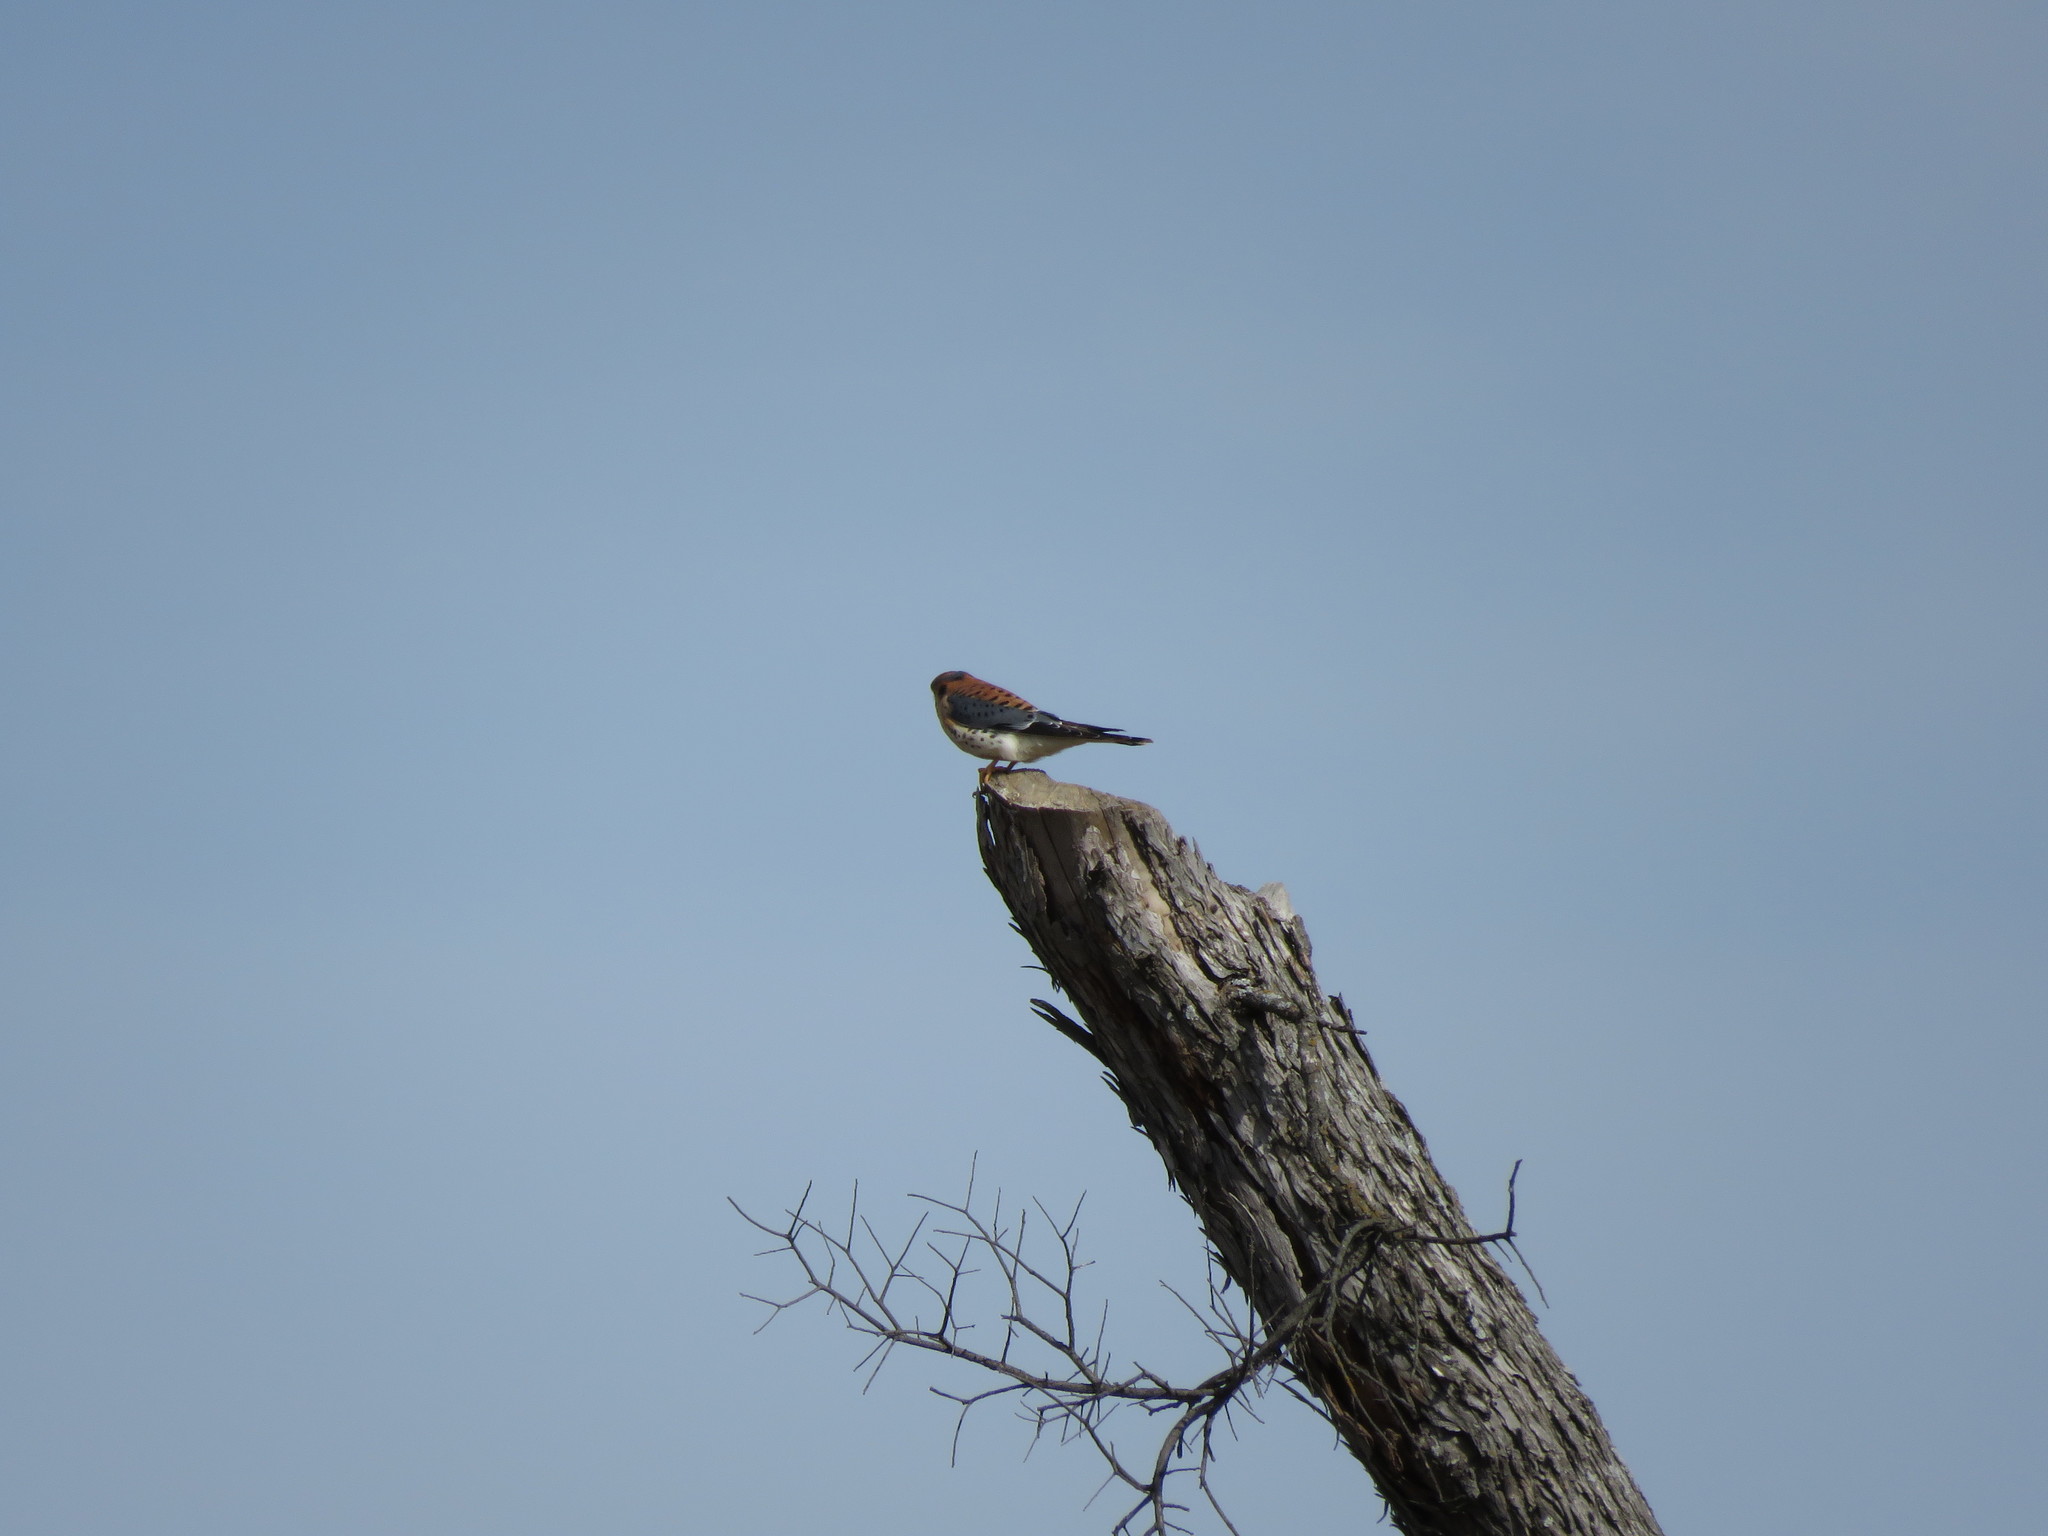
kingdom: Animalia
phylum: Chordata
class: Aves
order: Falconiformes
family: Falconidae
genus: Falco
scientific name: Falco sparverius
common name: American kestrel
